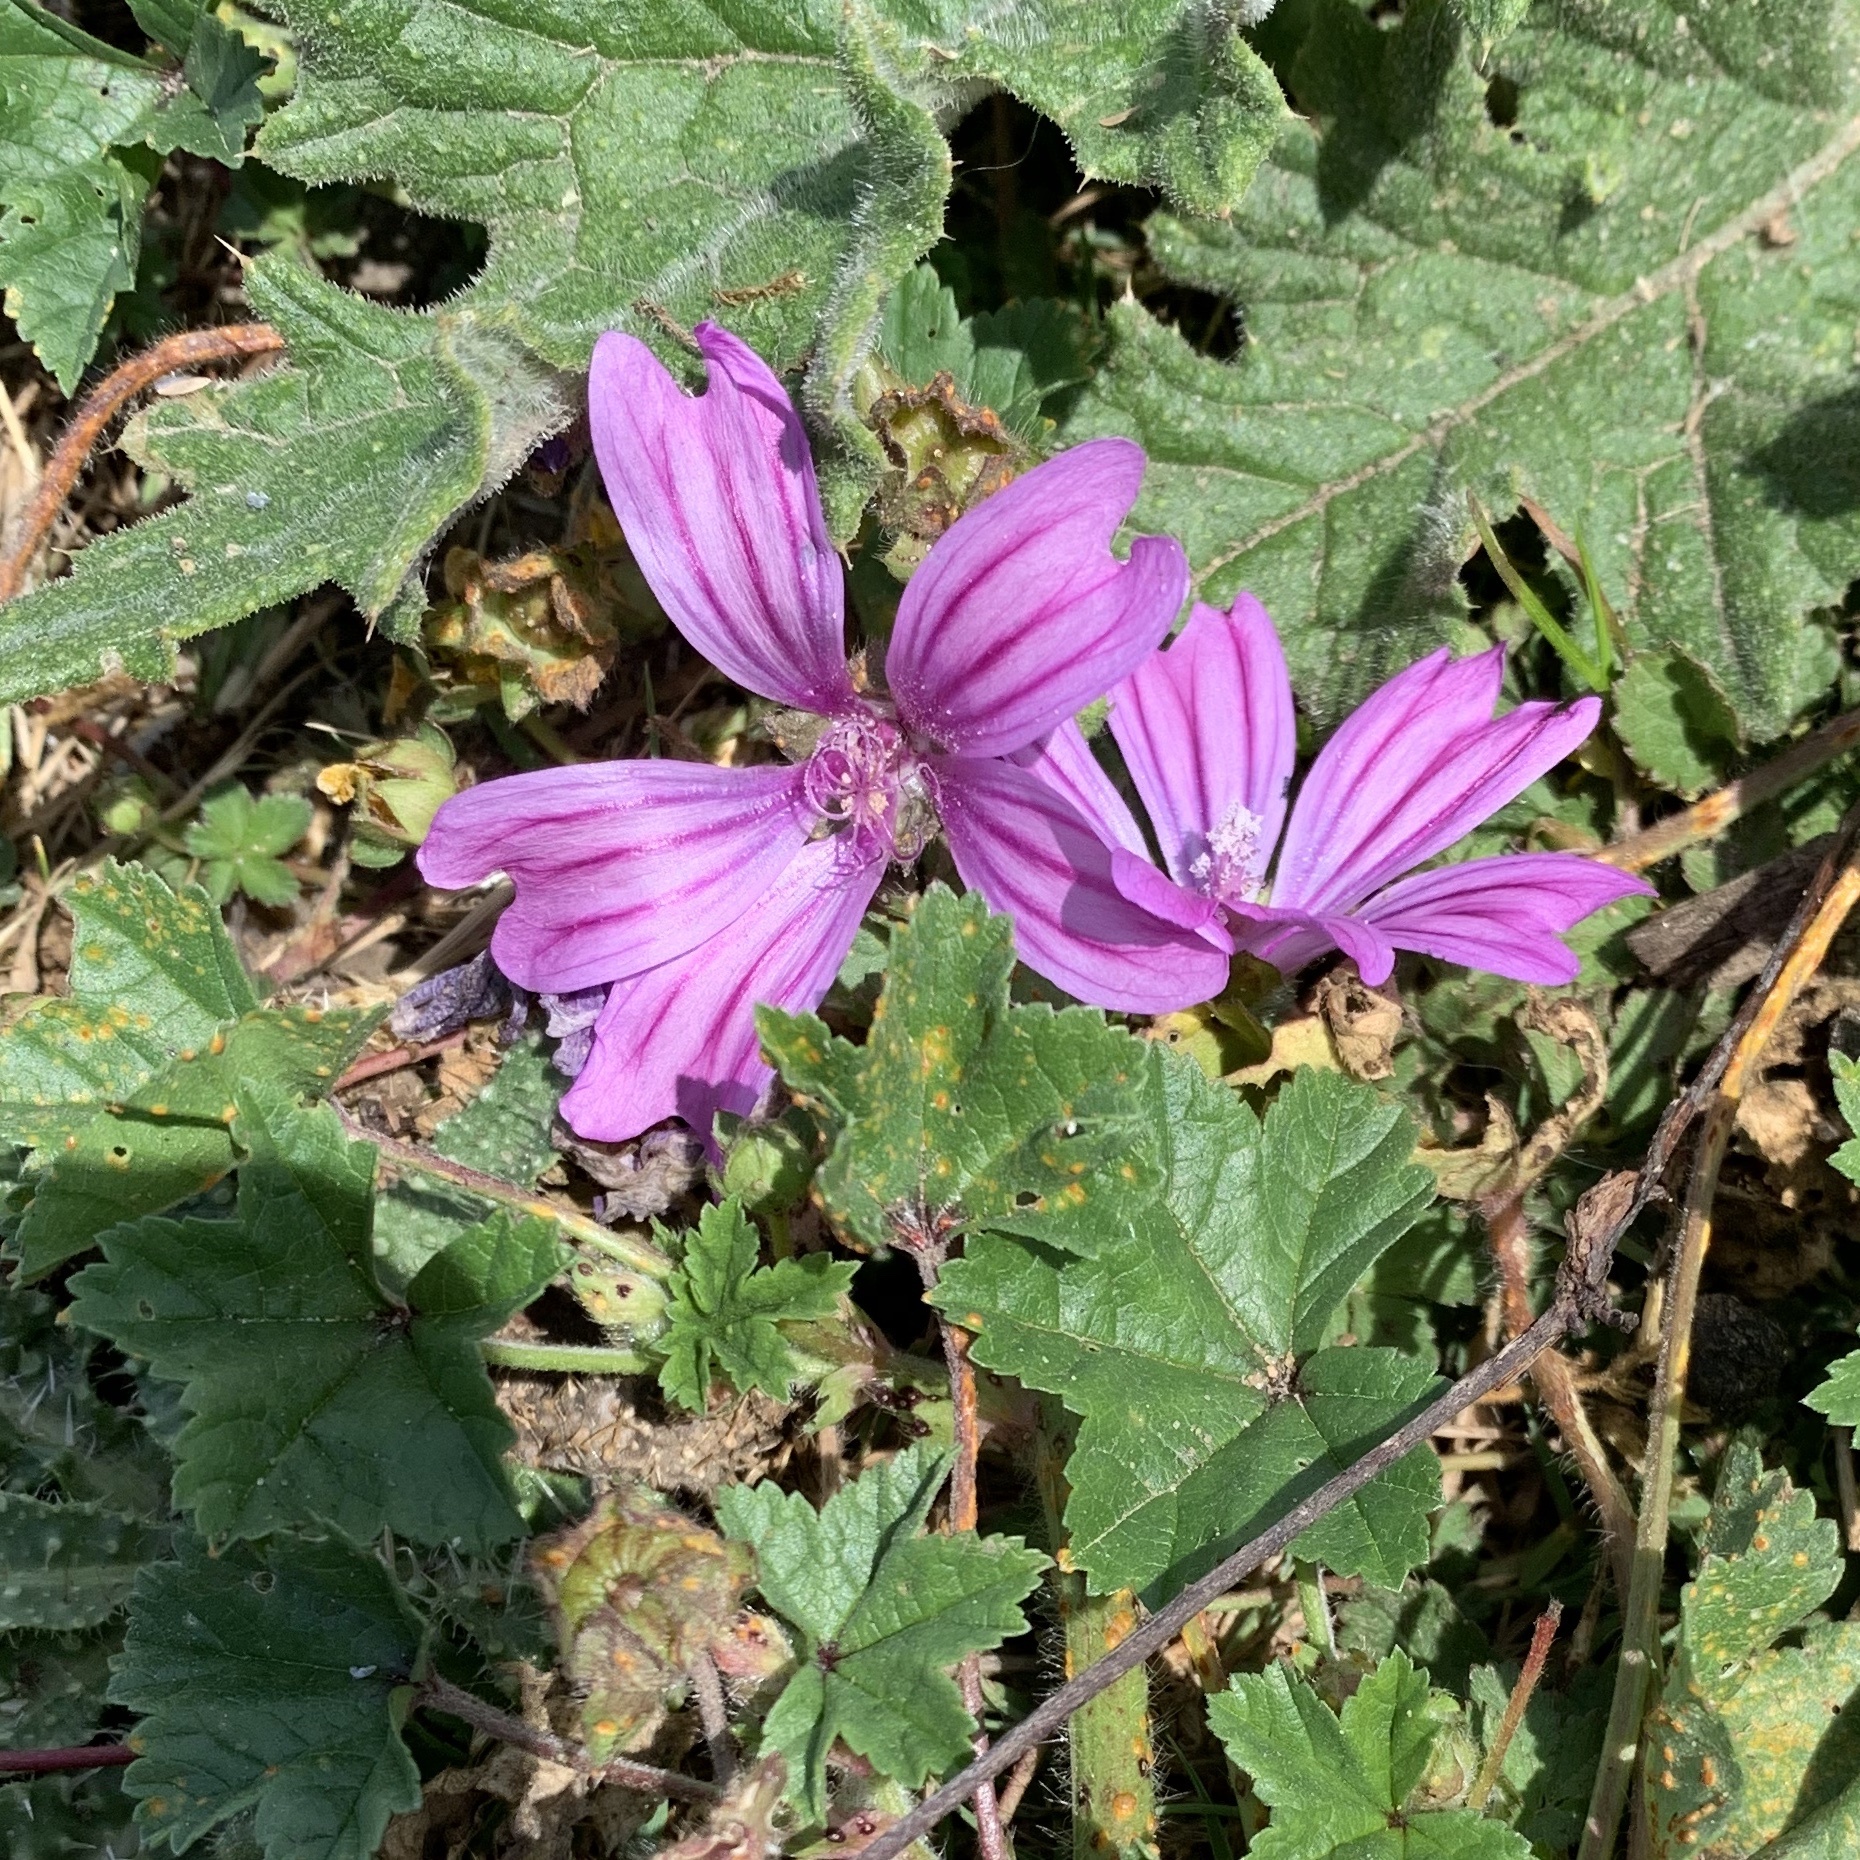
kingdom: Plantae
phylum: Tracheophyta
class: Magnoliopsida
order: Malvales
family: Malvaceae
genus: Malva
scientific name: Malva sylvestris
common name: Common mallow
